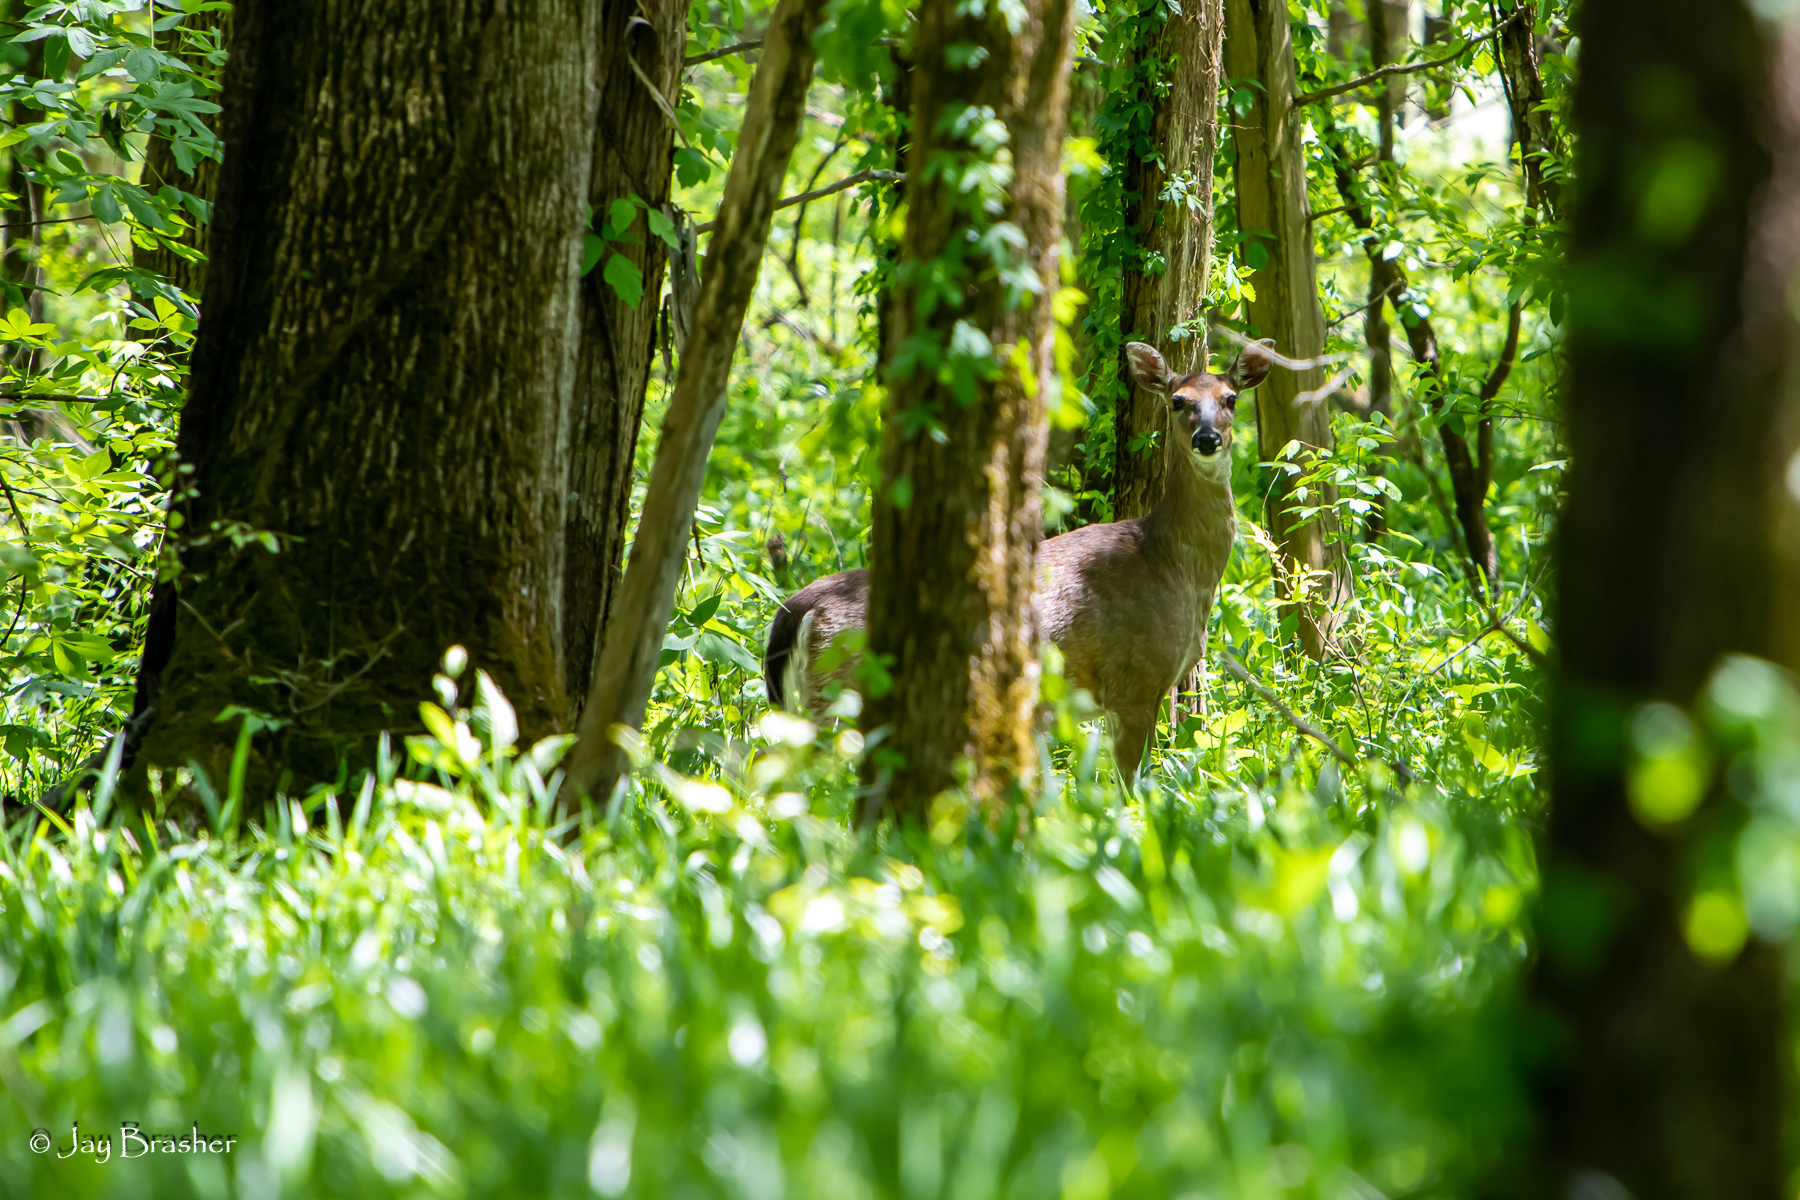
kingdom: Animalia
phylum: Chordata
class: Mammalia
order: Artiodactyla
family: Cervidae
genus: Odocoileus
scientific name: Odocoileus virginianus
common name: White-tailed deer
